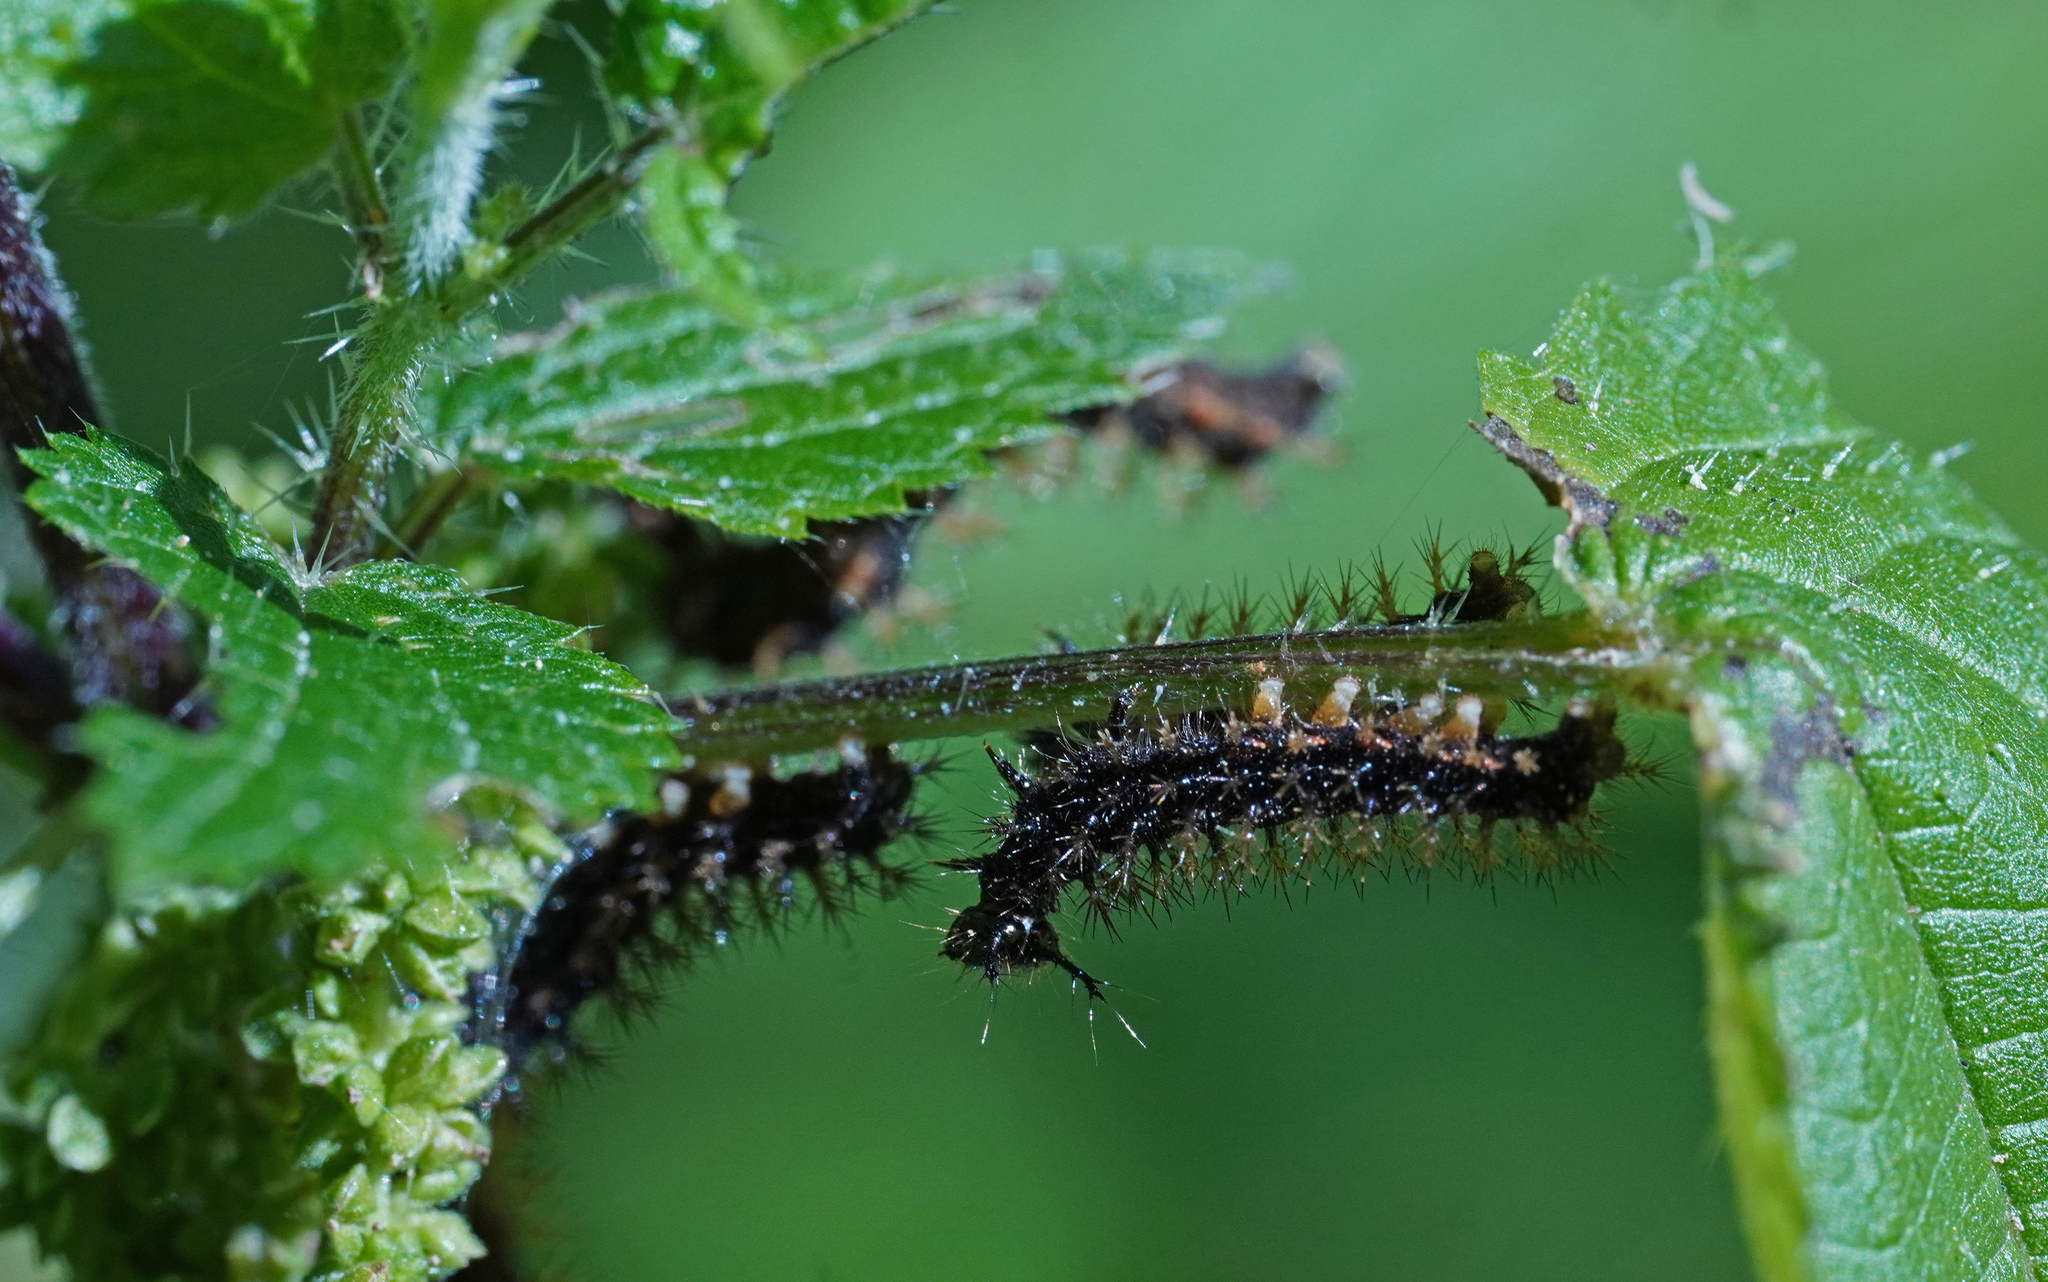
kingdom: Animalia
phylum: Arthropoda
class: Insecta
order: Lepidoptera
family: Nymphalidae
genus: Araschnia
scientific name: Araschnia levana
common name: Map butterfly
